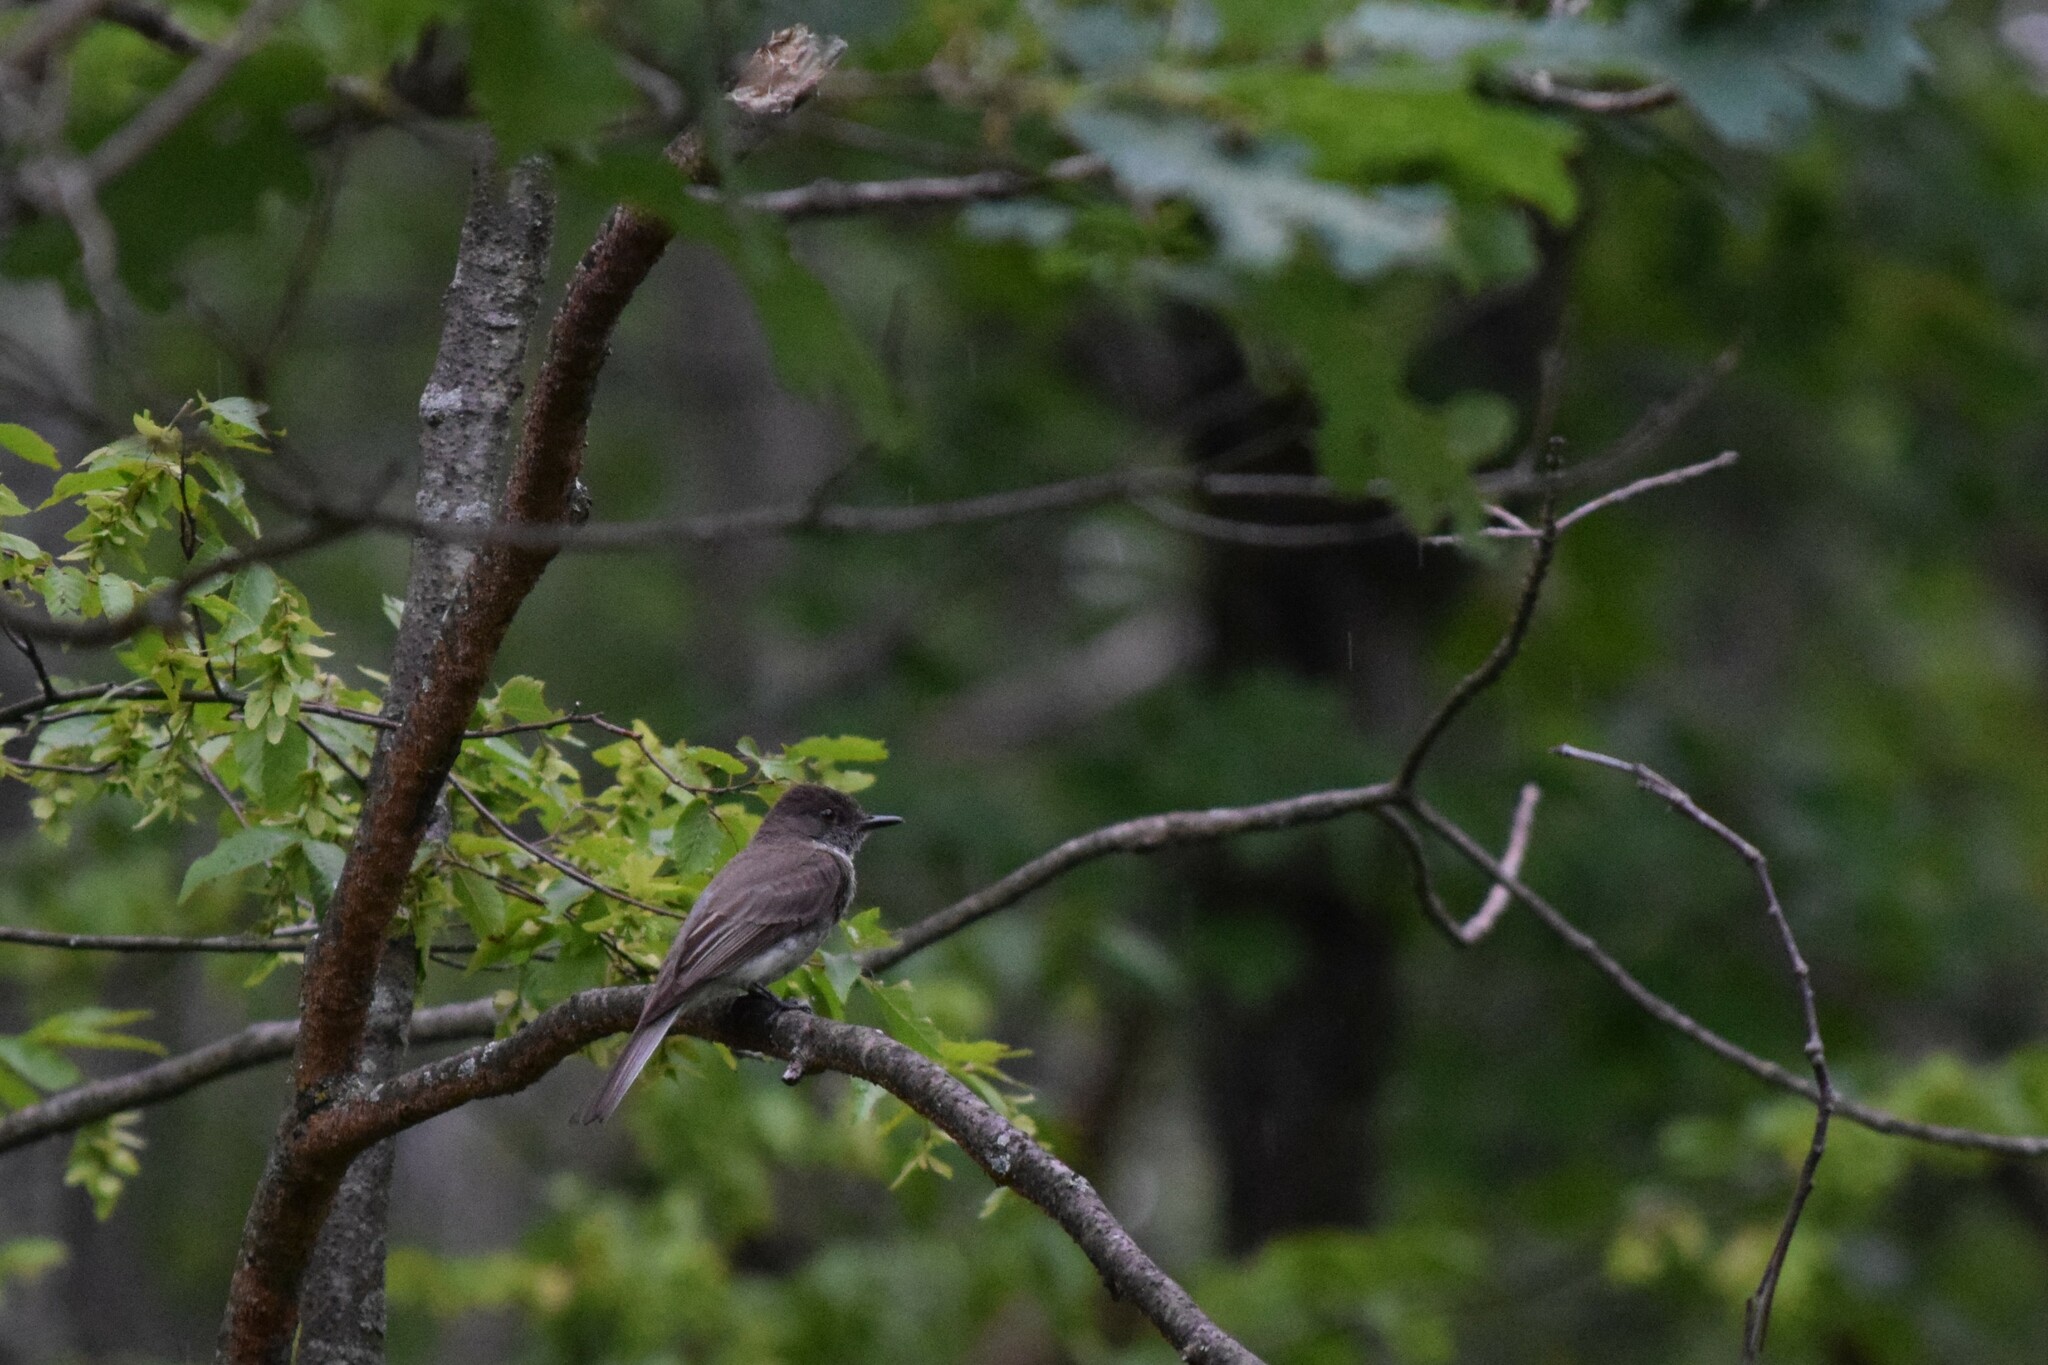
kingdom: Animalia
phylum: Chordata
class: Aves
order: Passeriformes
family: Tyrannidae
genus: Sayornis
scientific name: Sayornis phoebe
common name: Eastern phoebe
